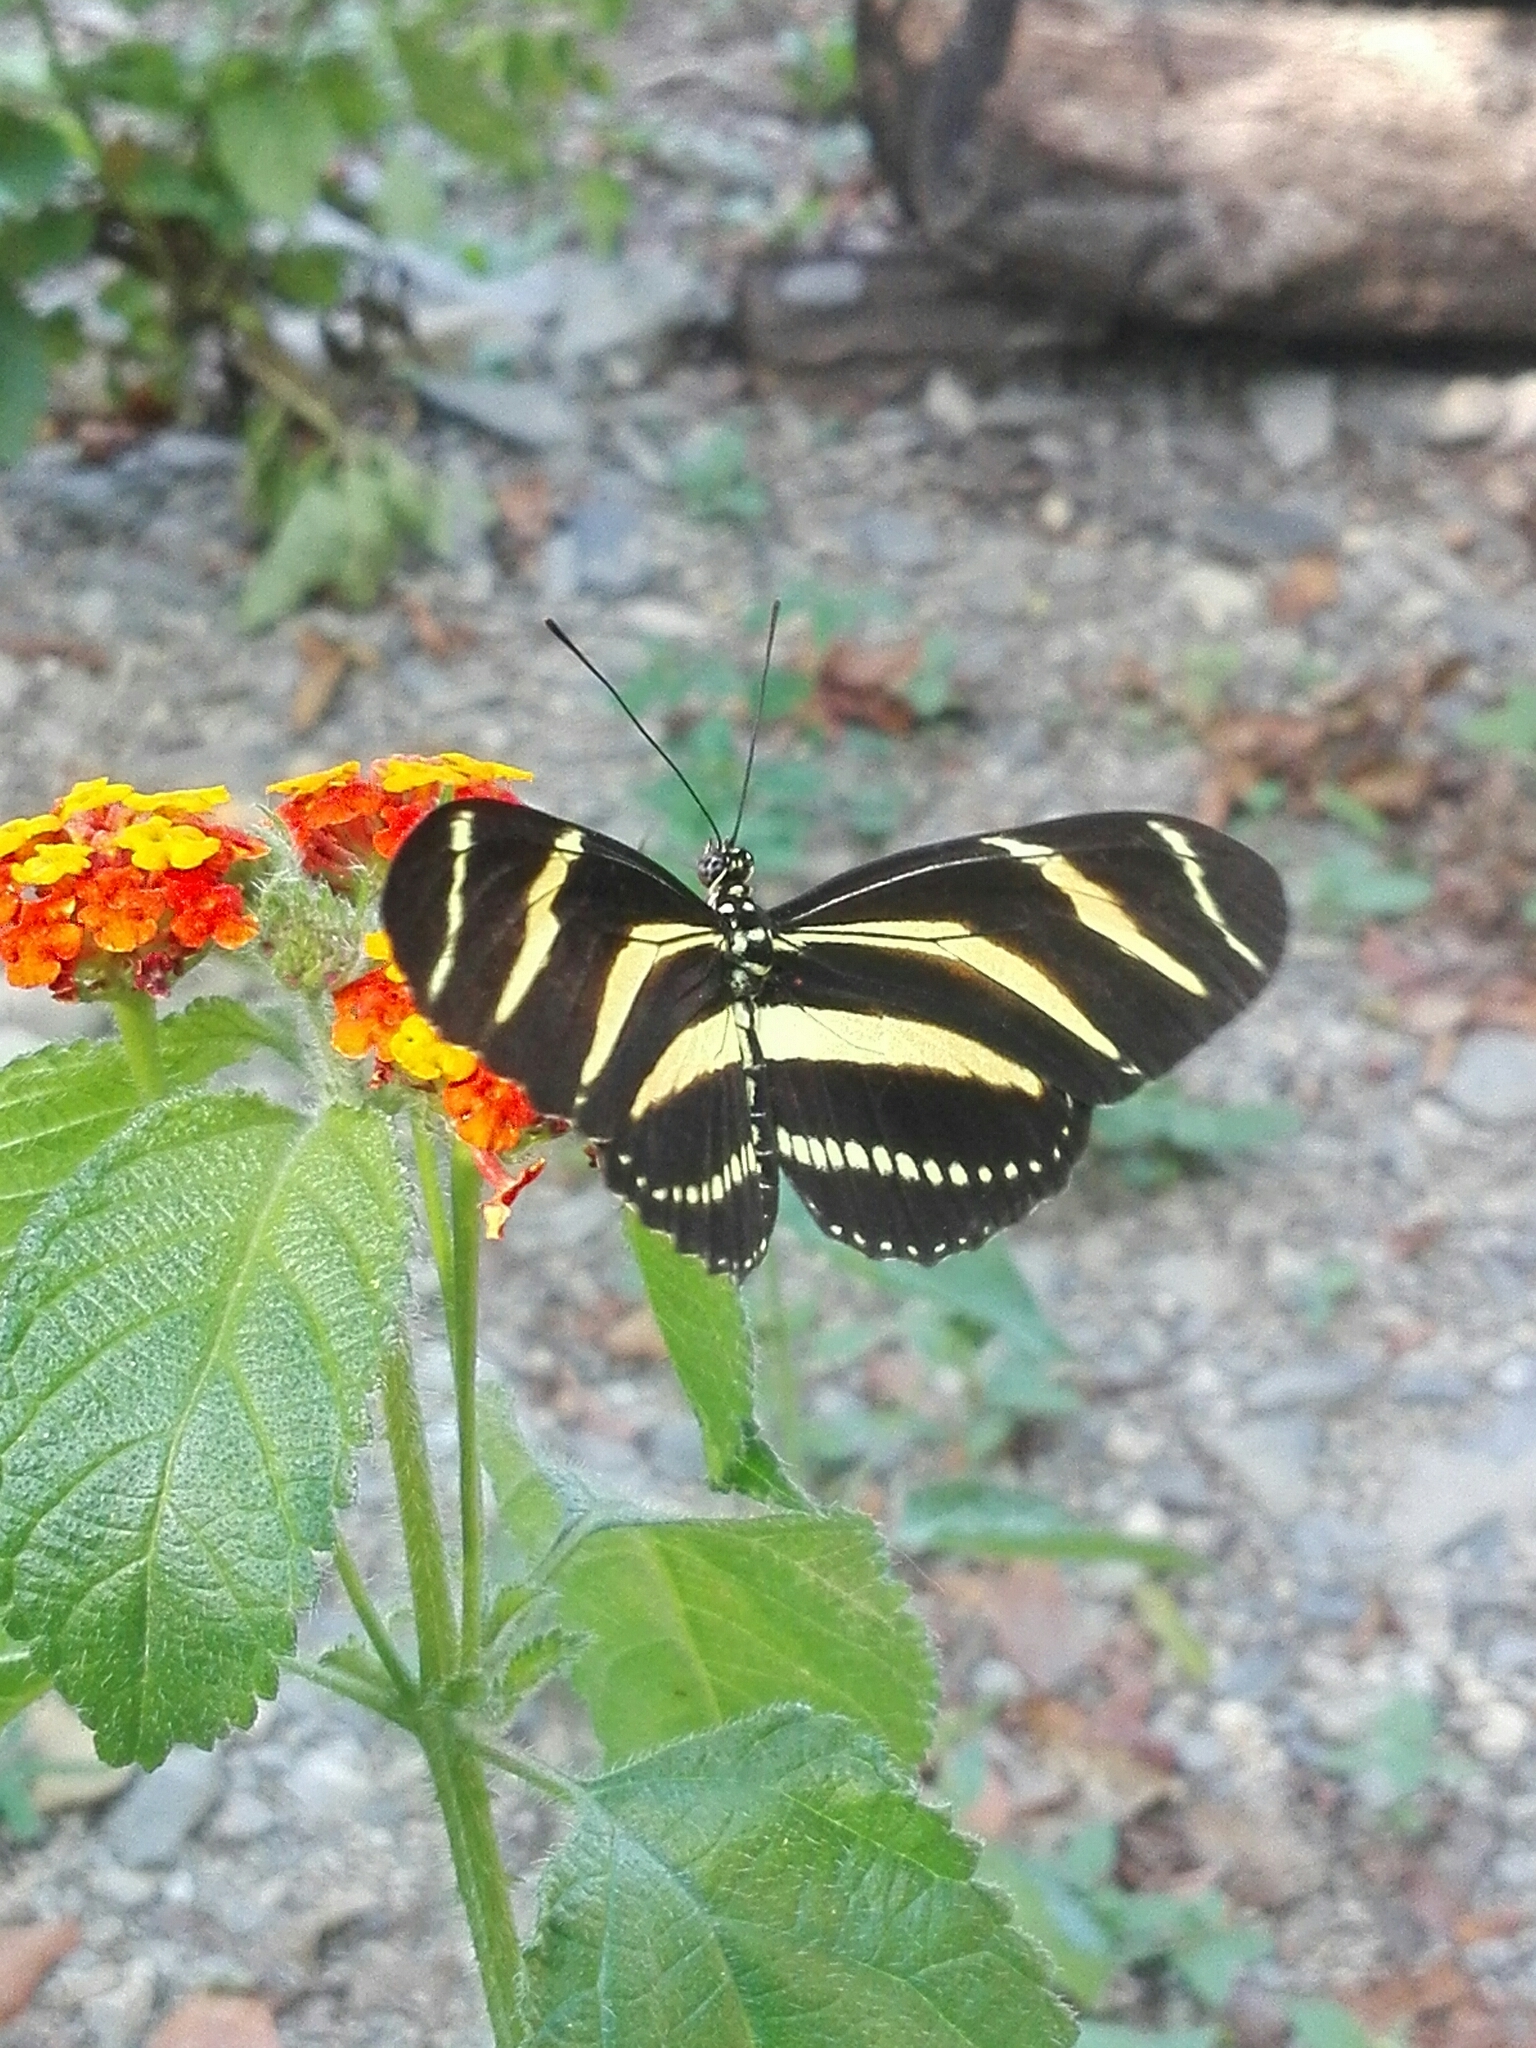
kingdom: Animalia
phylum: Arthropoda
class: Insecta
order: Lepidoptera
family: Nymphalidae
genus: Heliconius
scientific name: Heliconius charithonia
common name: Zebra long wing
